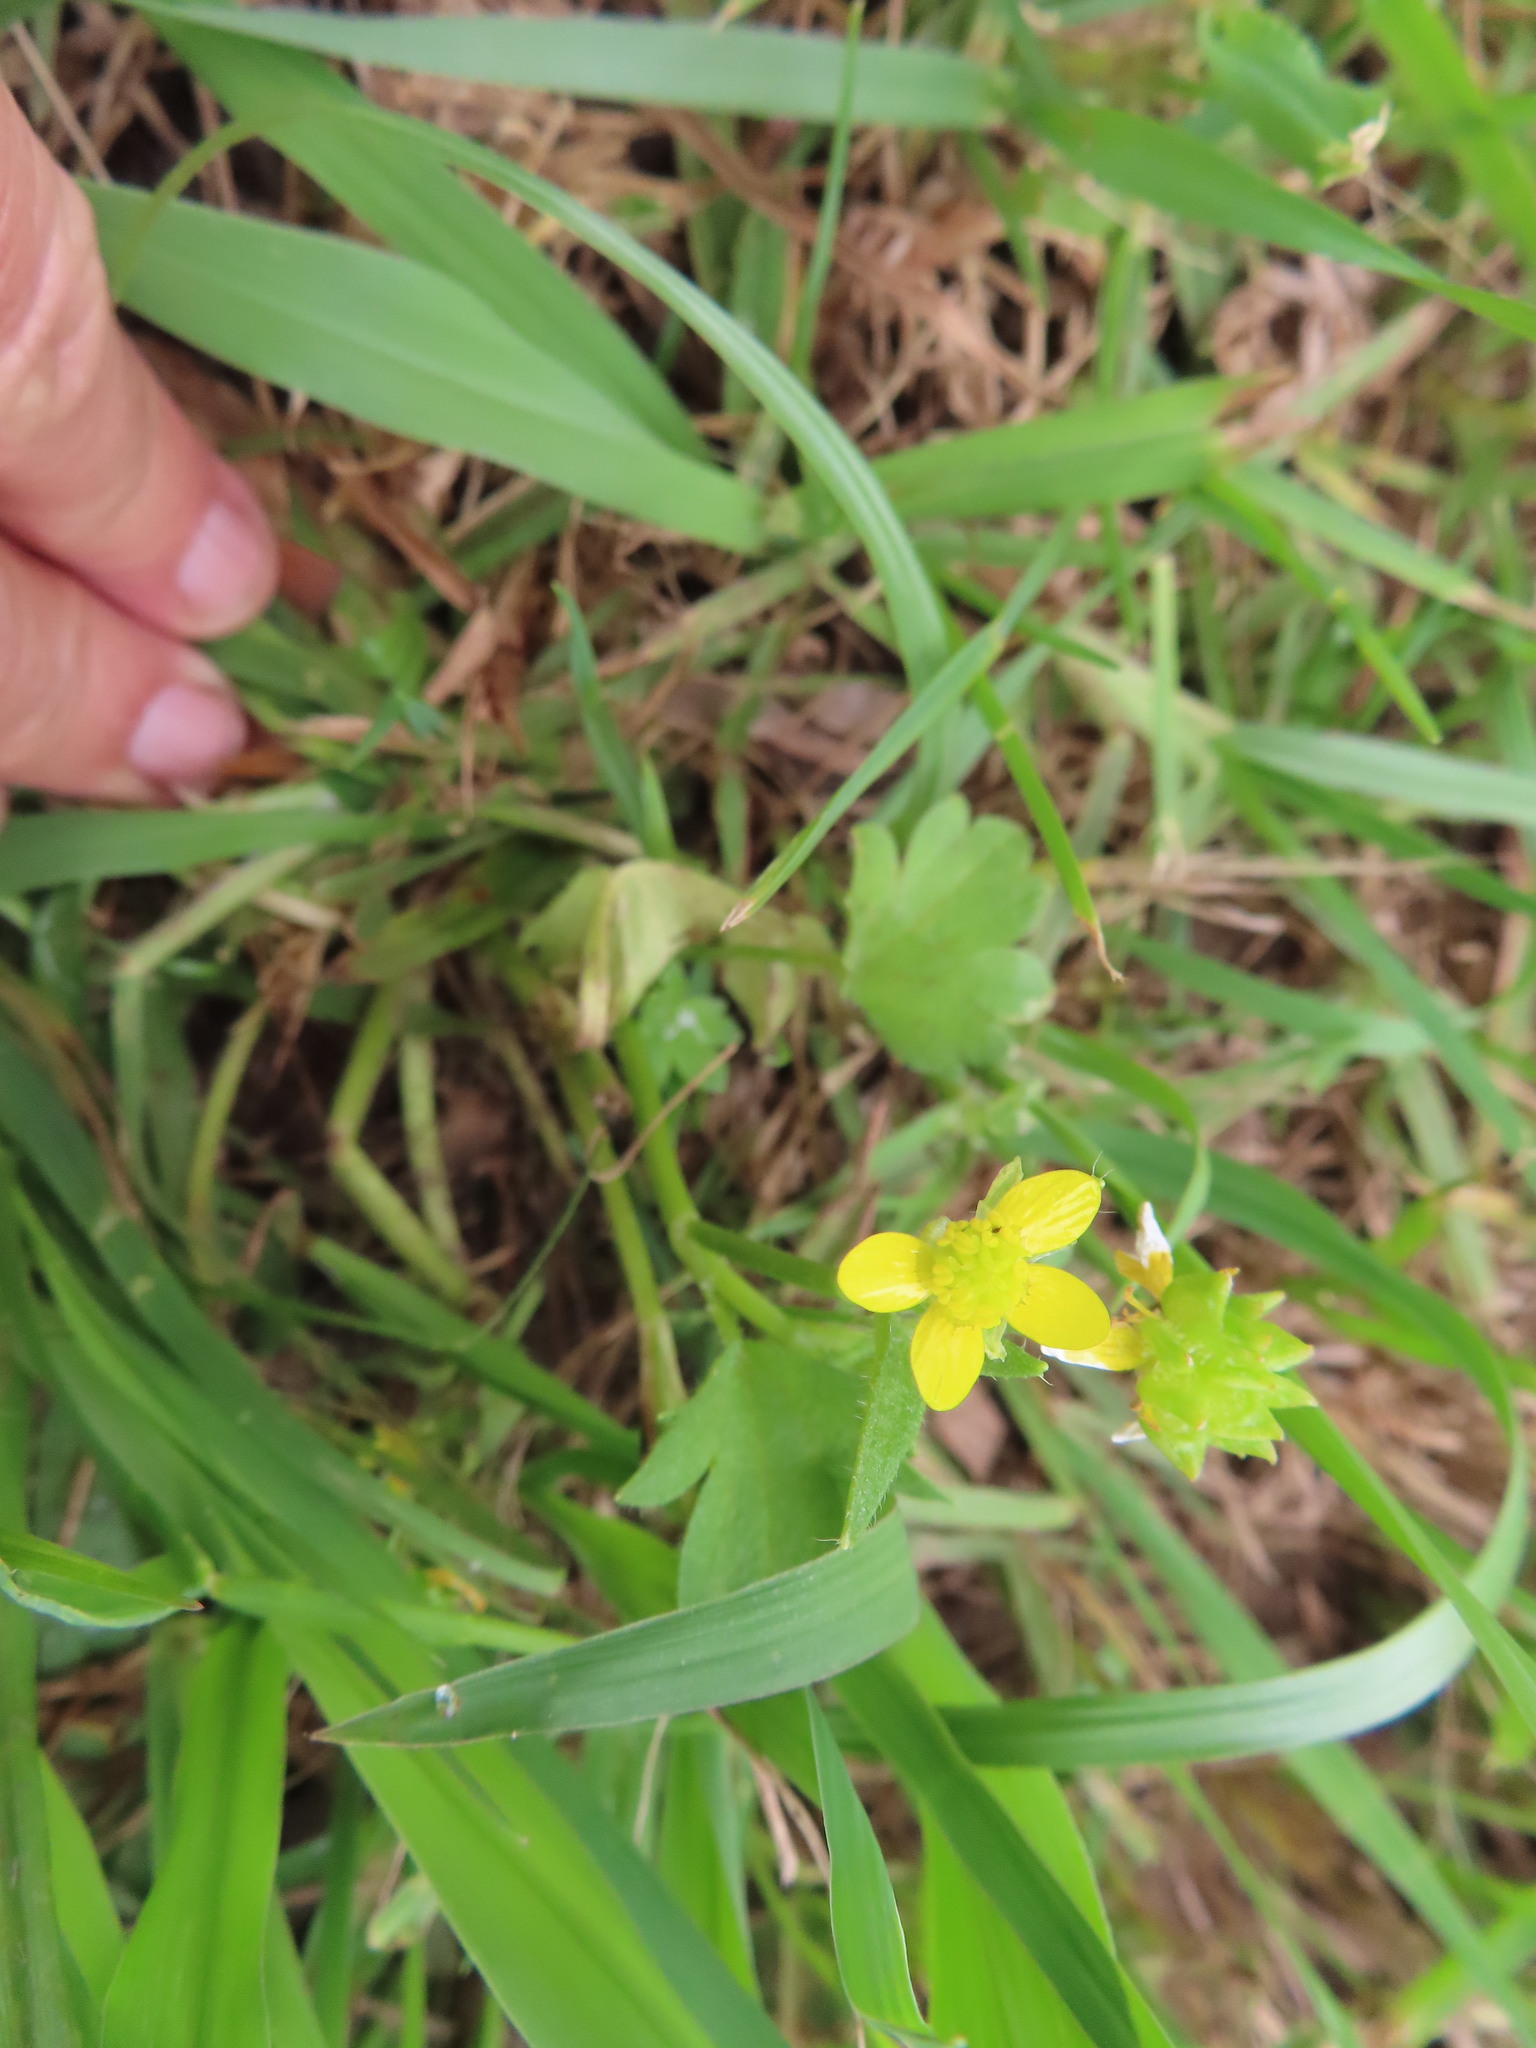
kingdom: Plantae
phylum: Tracheophyta
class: Magnoliopsida
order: Ranunculales
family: Ranunculaceae
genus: Ranunculus
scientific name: Ranunculus muricatus
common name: Rough-fruited buttercup
